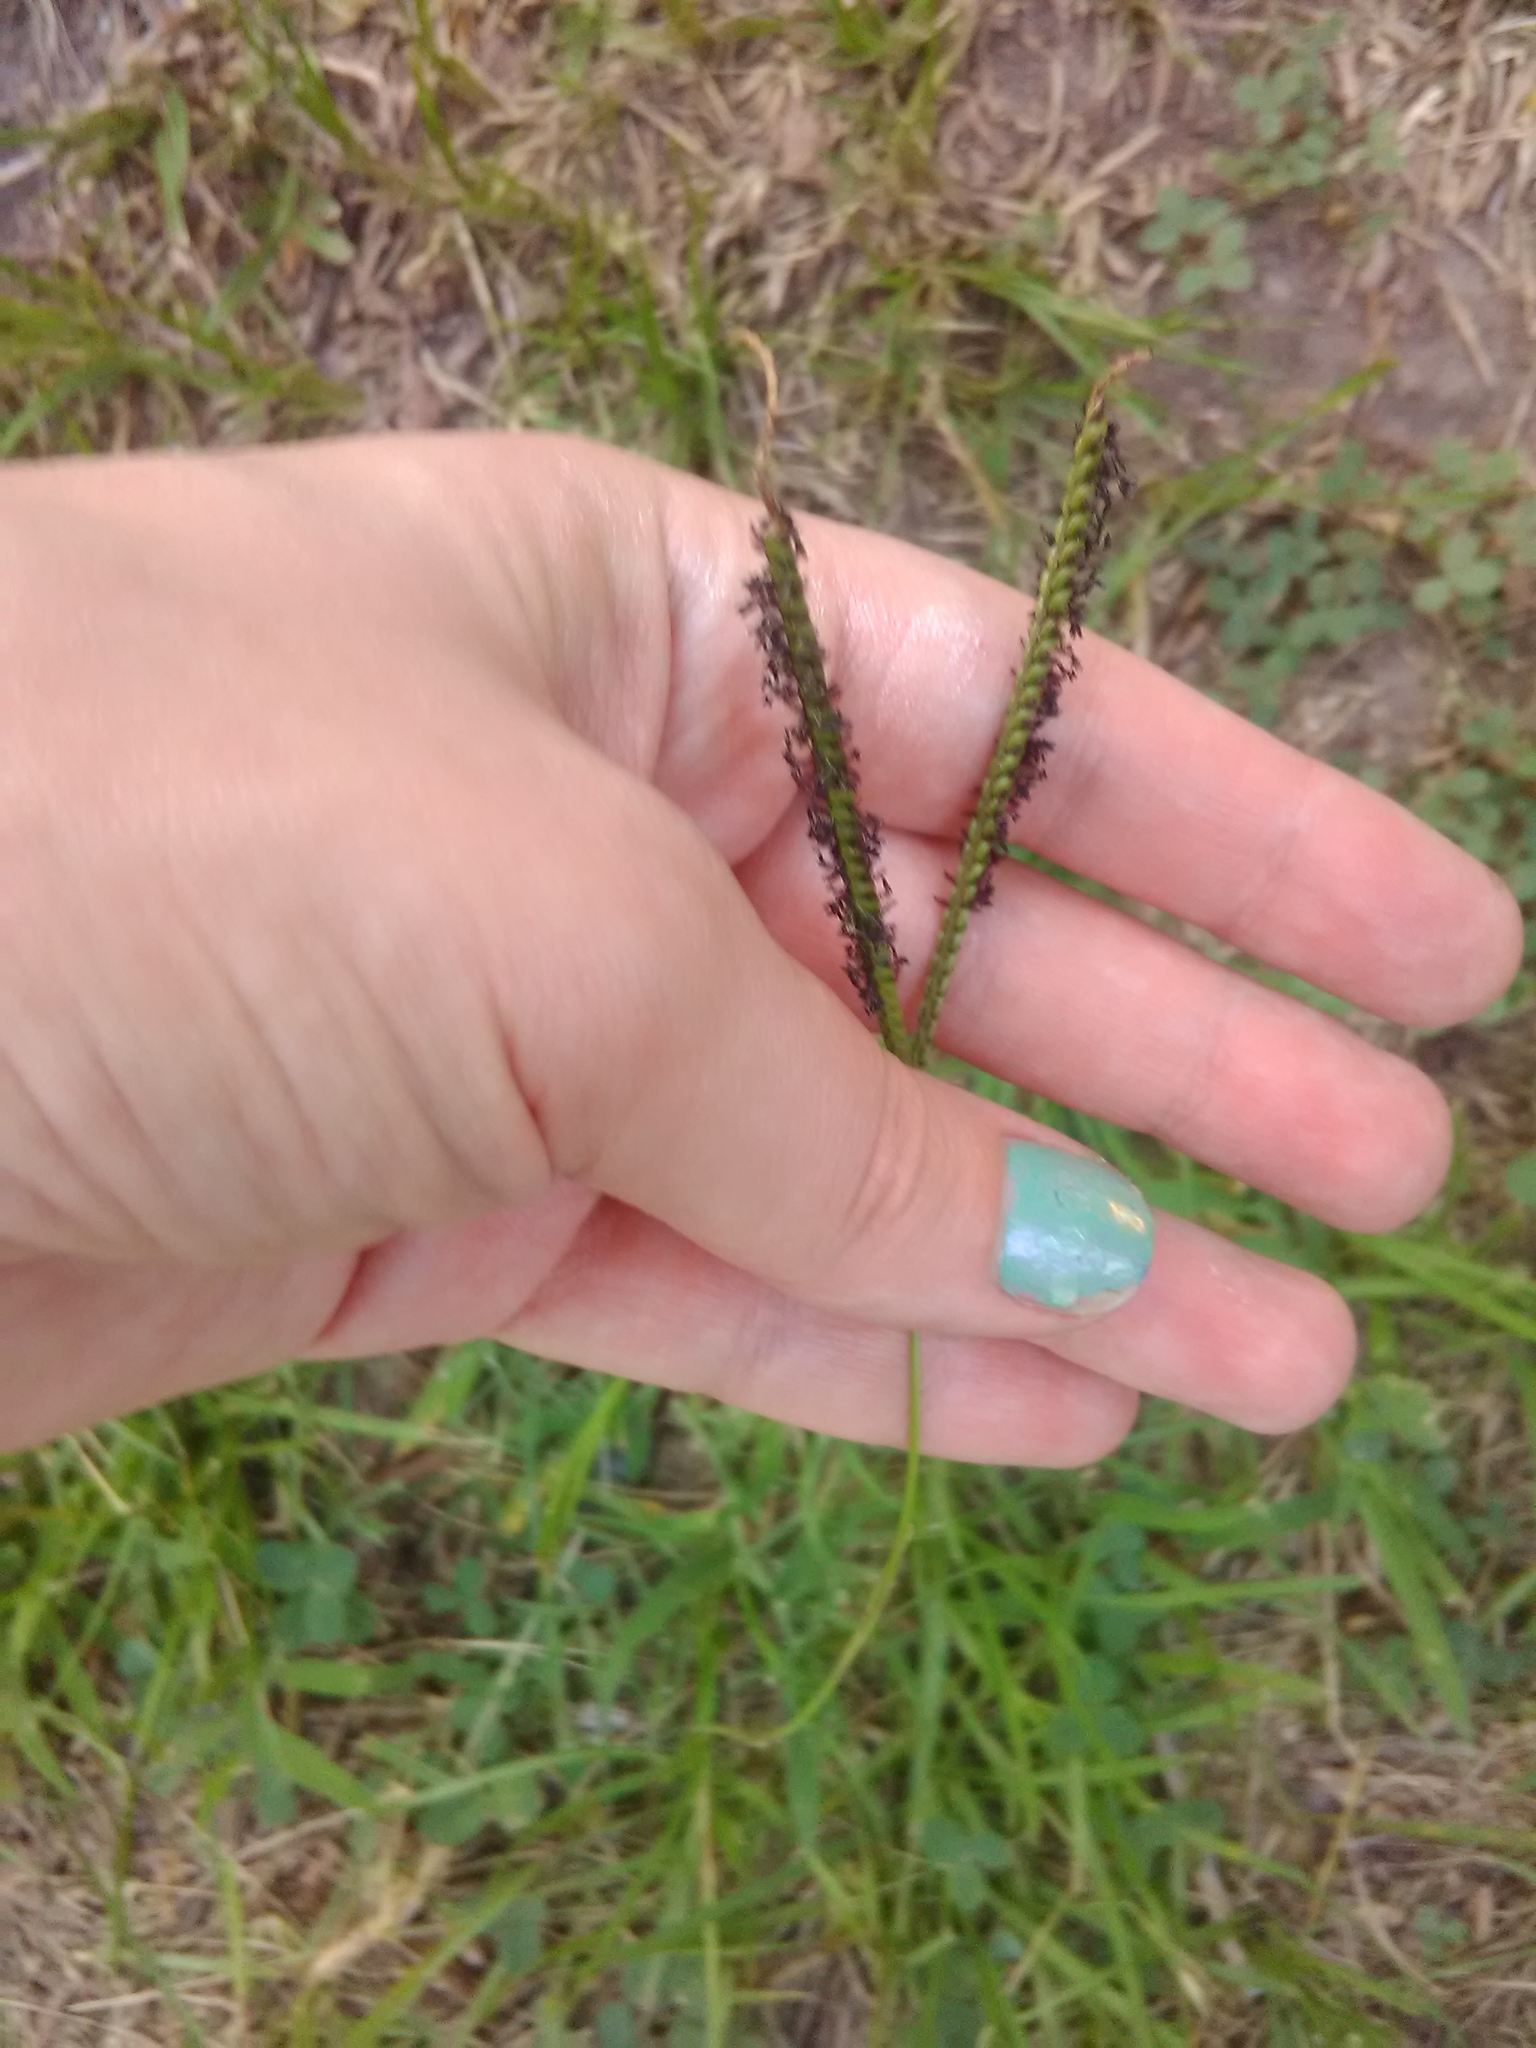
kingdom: Plantae
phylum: Tracheophyta
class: Liliopsida
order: Poales
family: Poaceae
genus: Paspalum
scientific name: Paspalum notatum
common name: Bahiagrass
